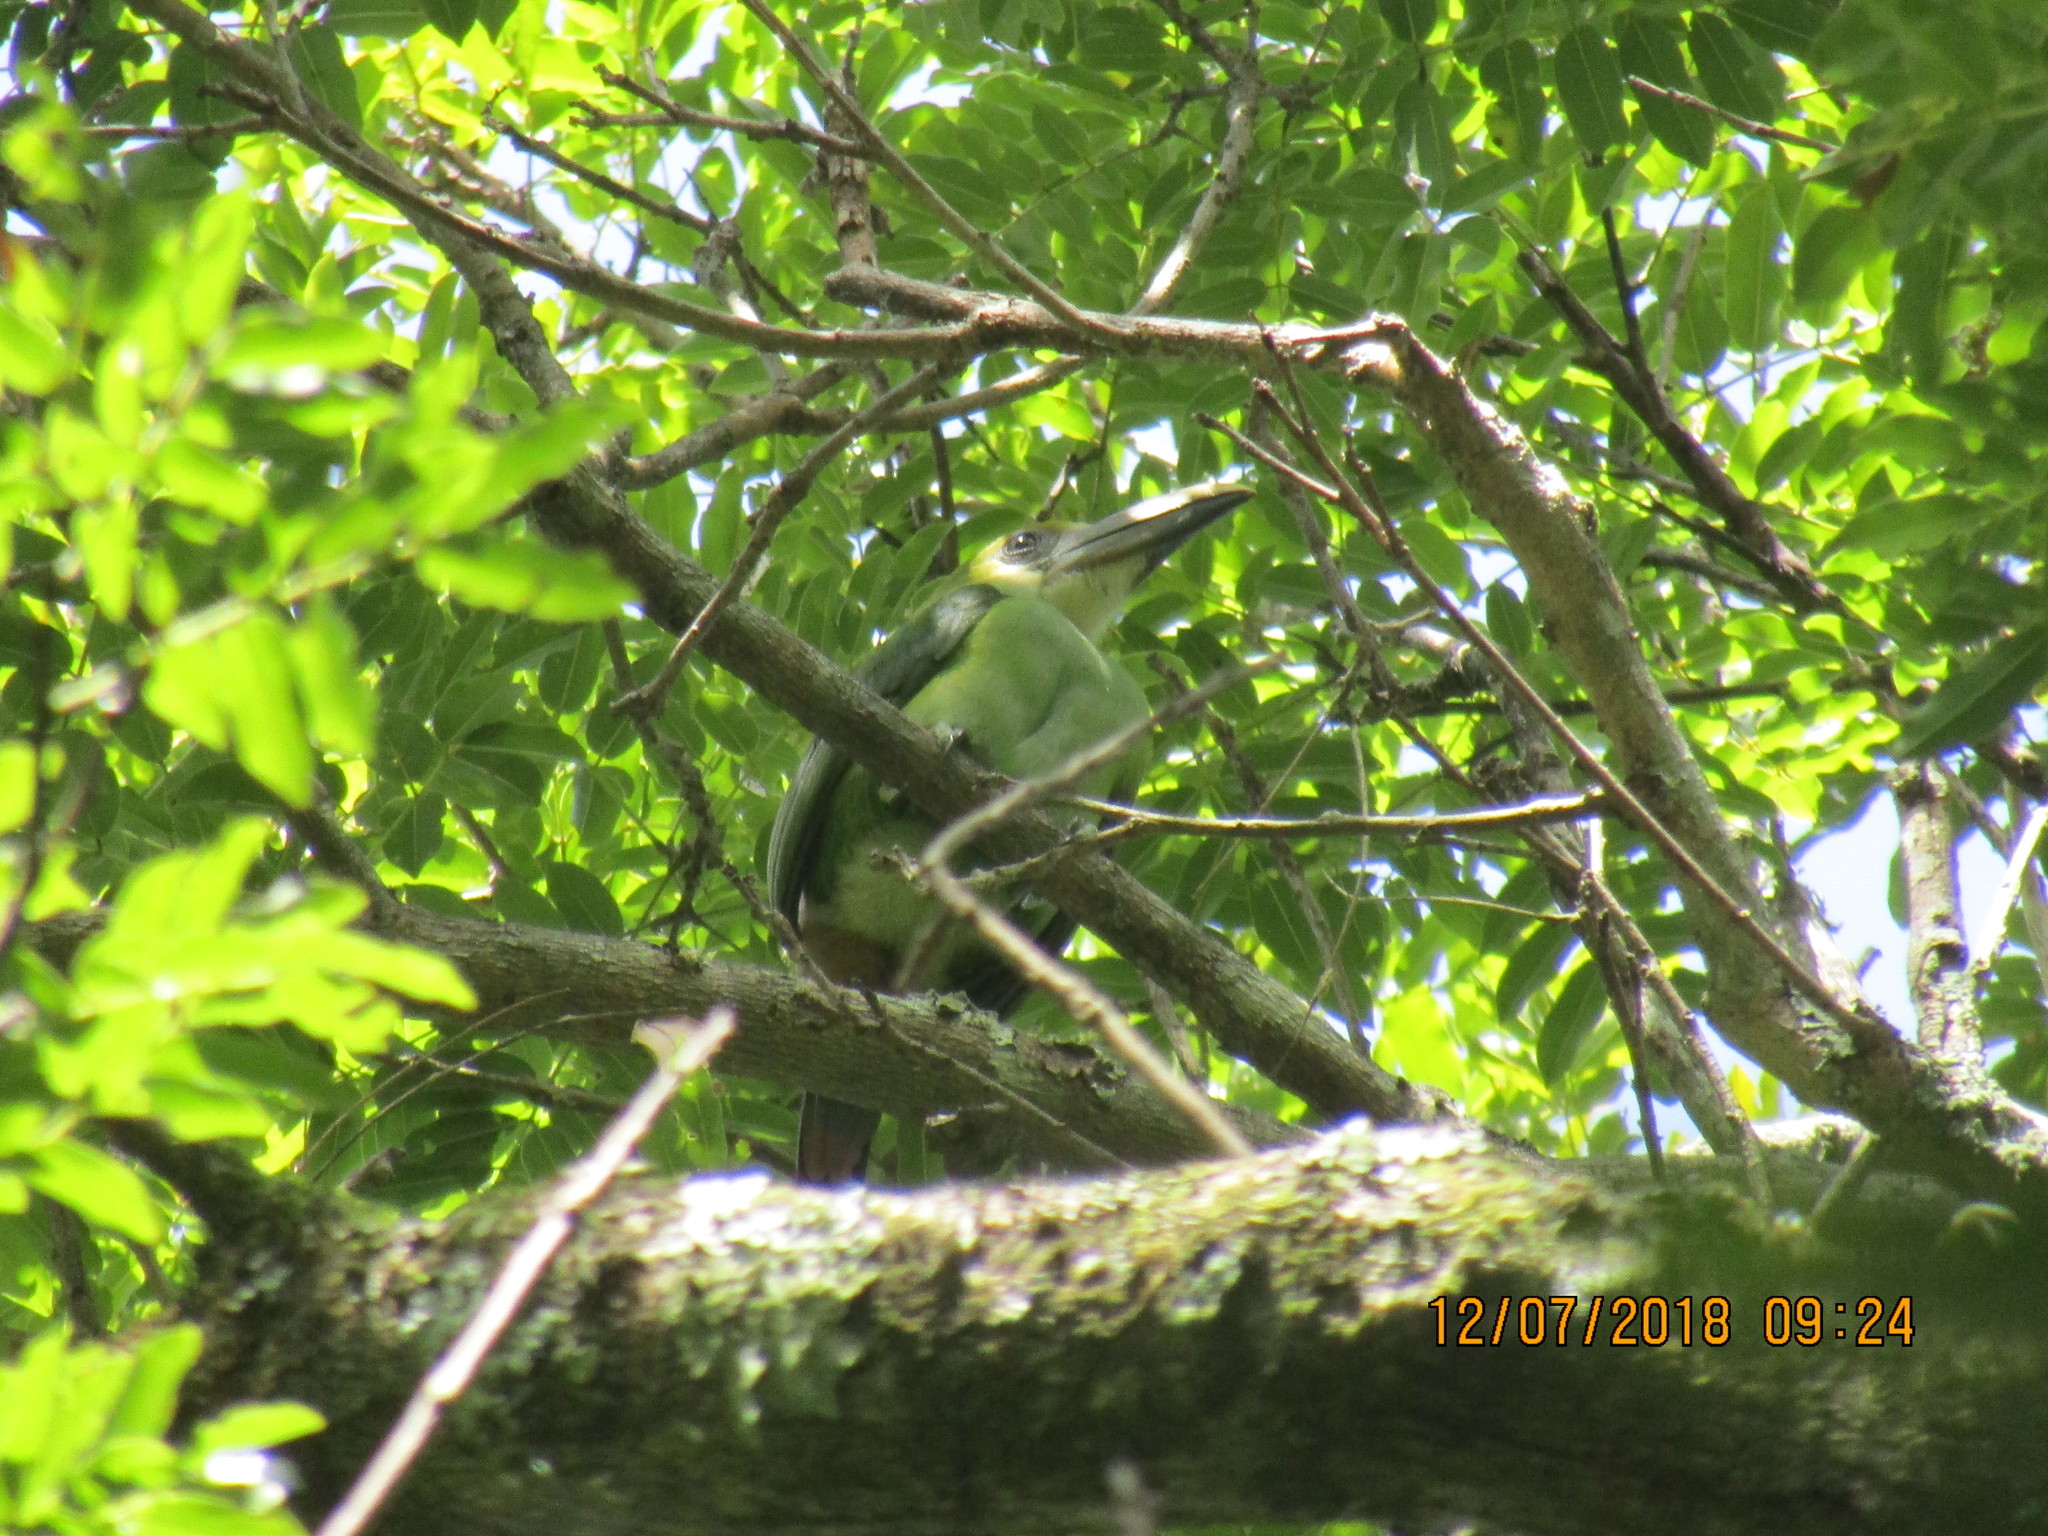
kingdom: Animalia
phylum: Chordata
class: Aves
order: Piciformes
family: Ramphastidae
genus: Aulacorhynchus
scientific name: Aulacorhynchus prasinus
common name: Emerald toucanet
